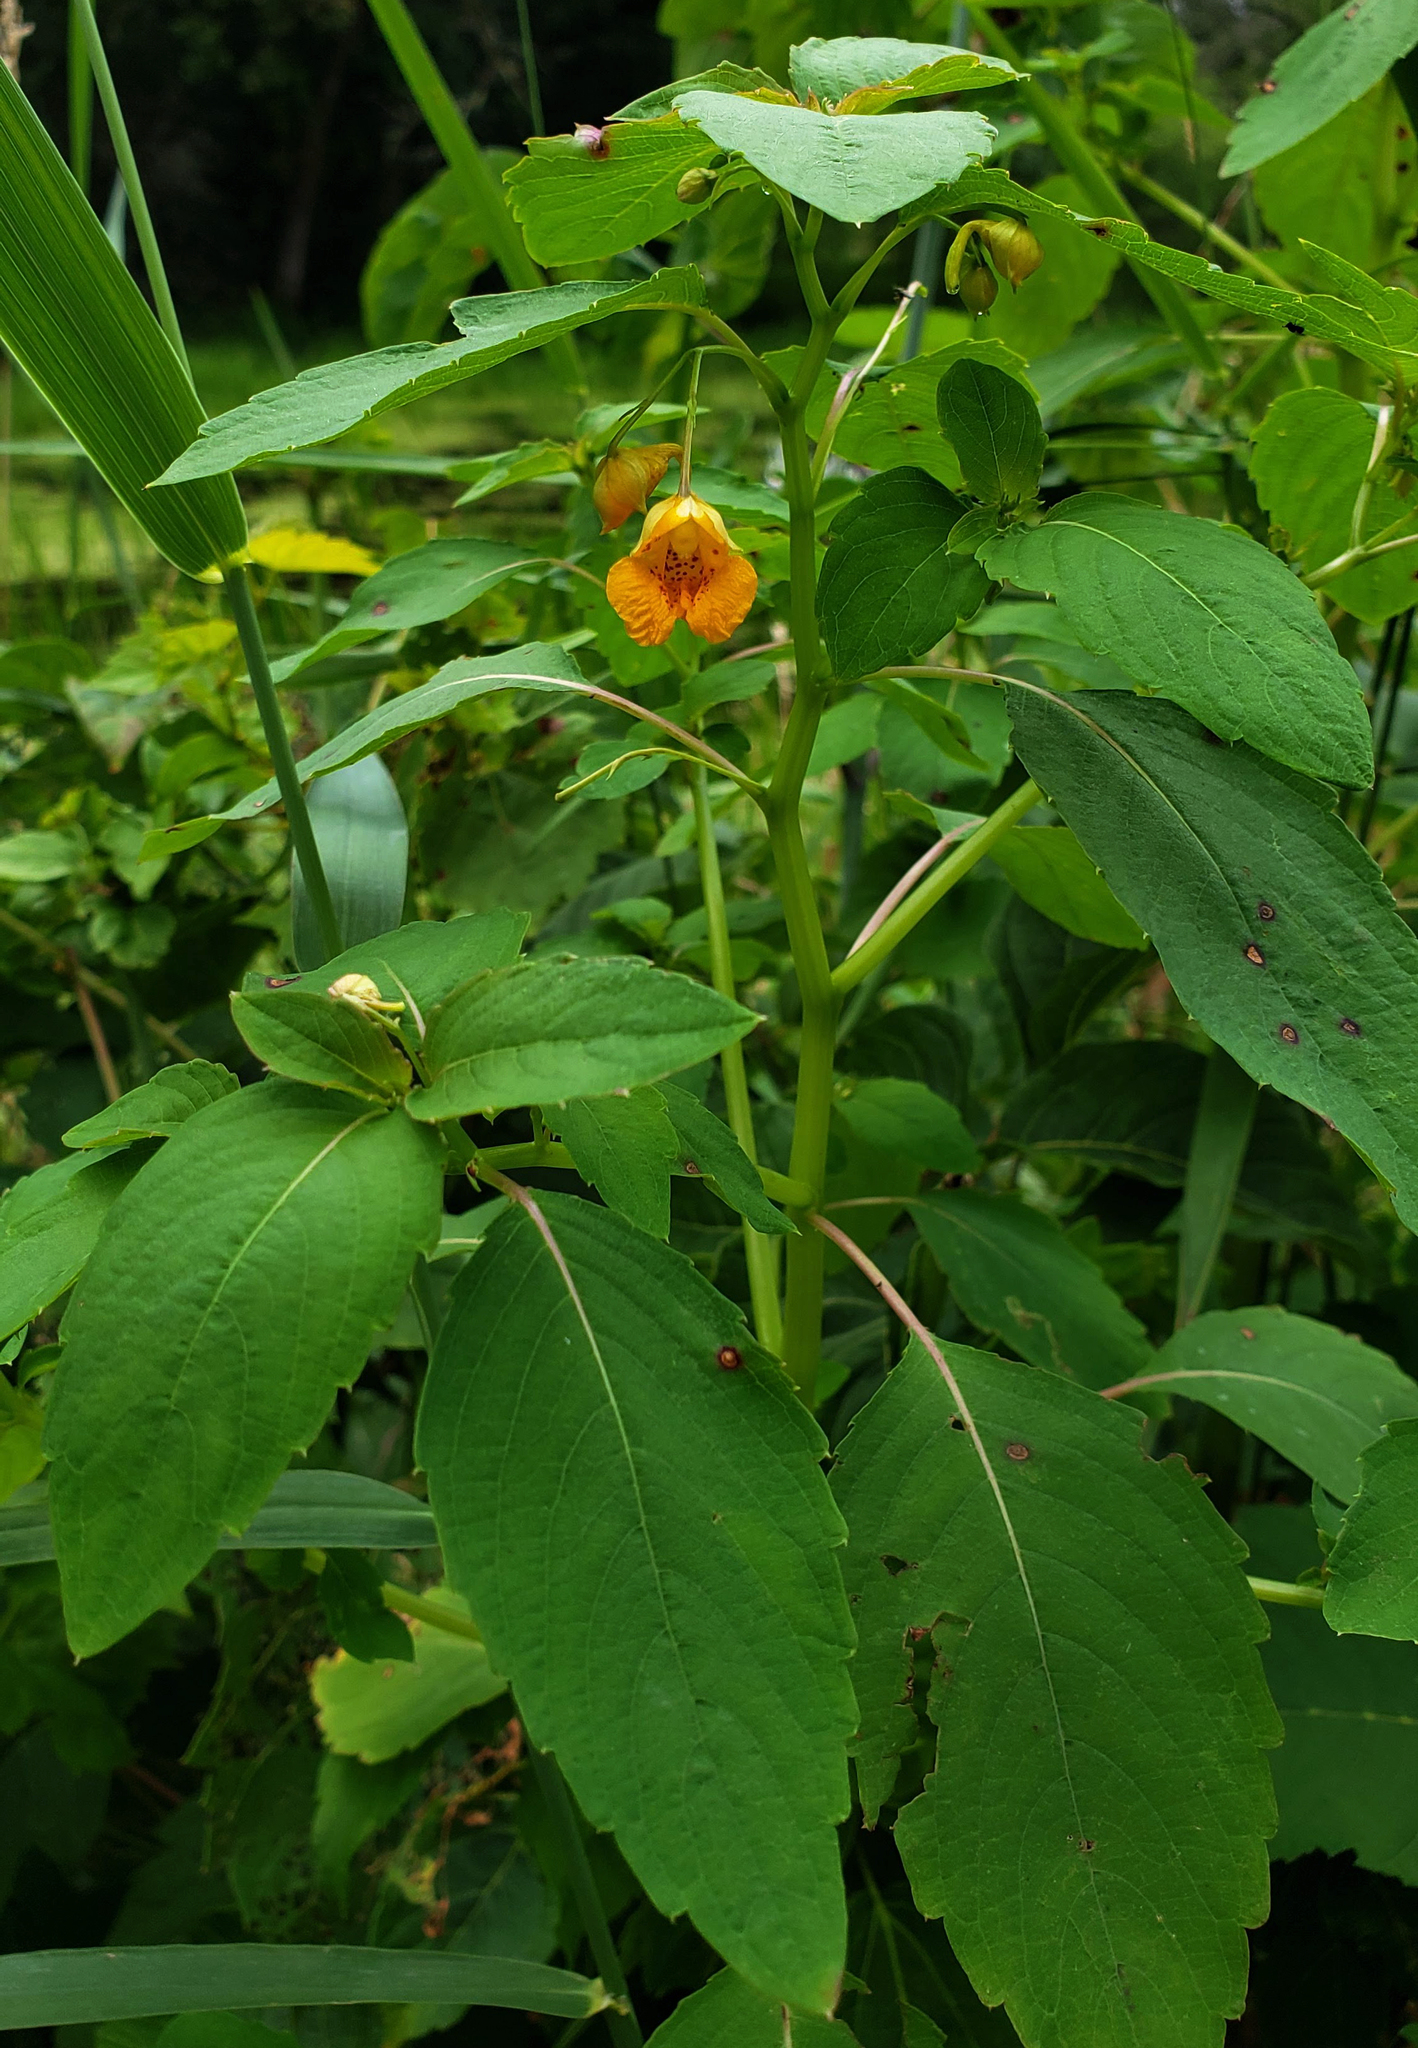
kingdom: Plantae
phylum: Tracheophyta
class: Magnoliopsida
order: Ericales
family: Balsaminaceae
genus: Impatiens
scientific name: Impatiens capensis
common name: Orange balsam
